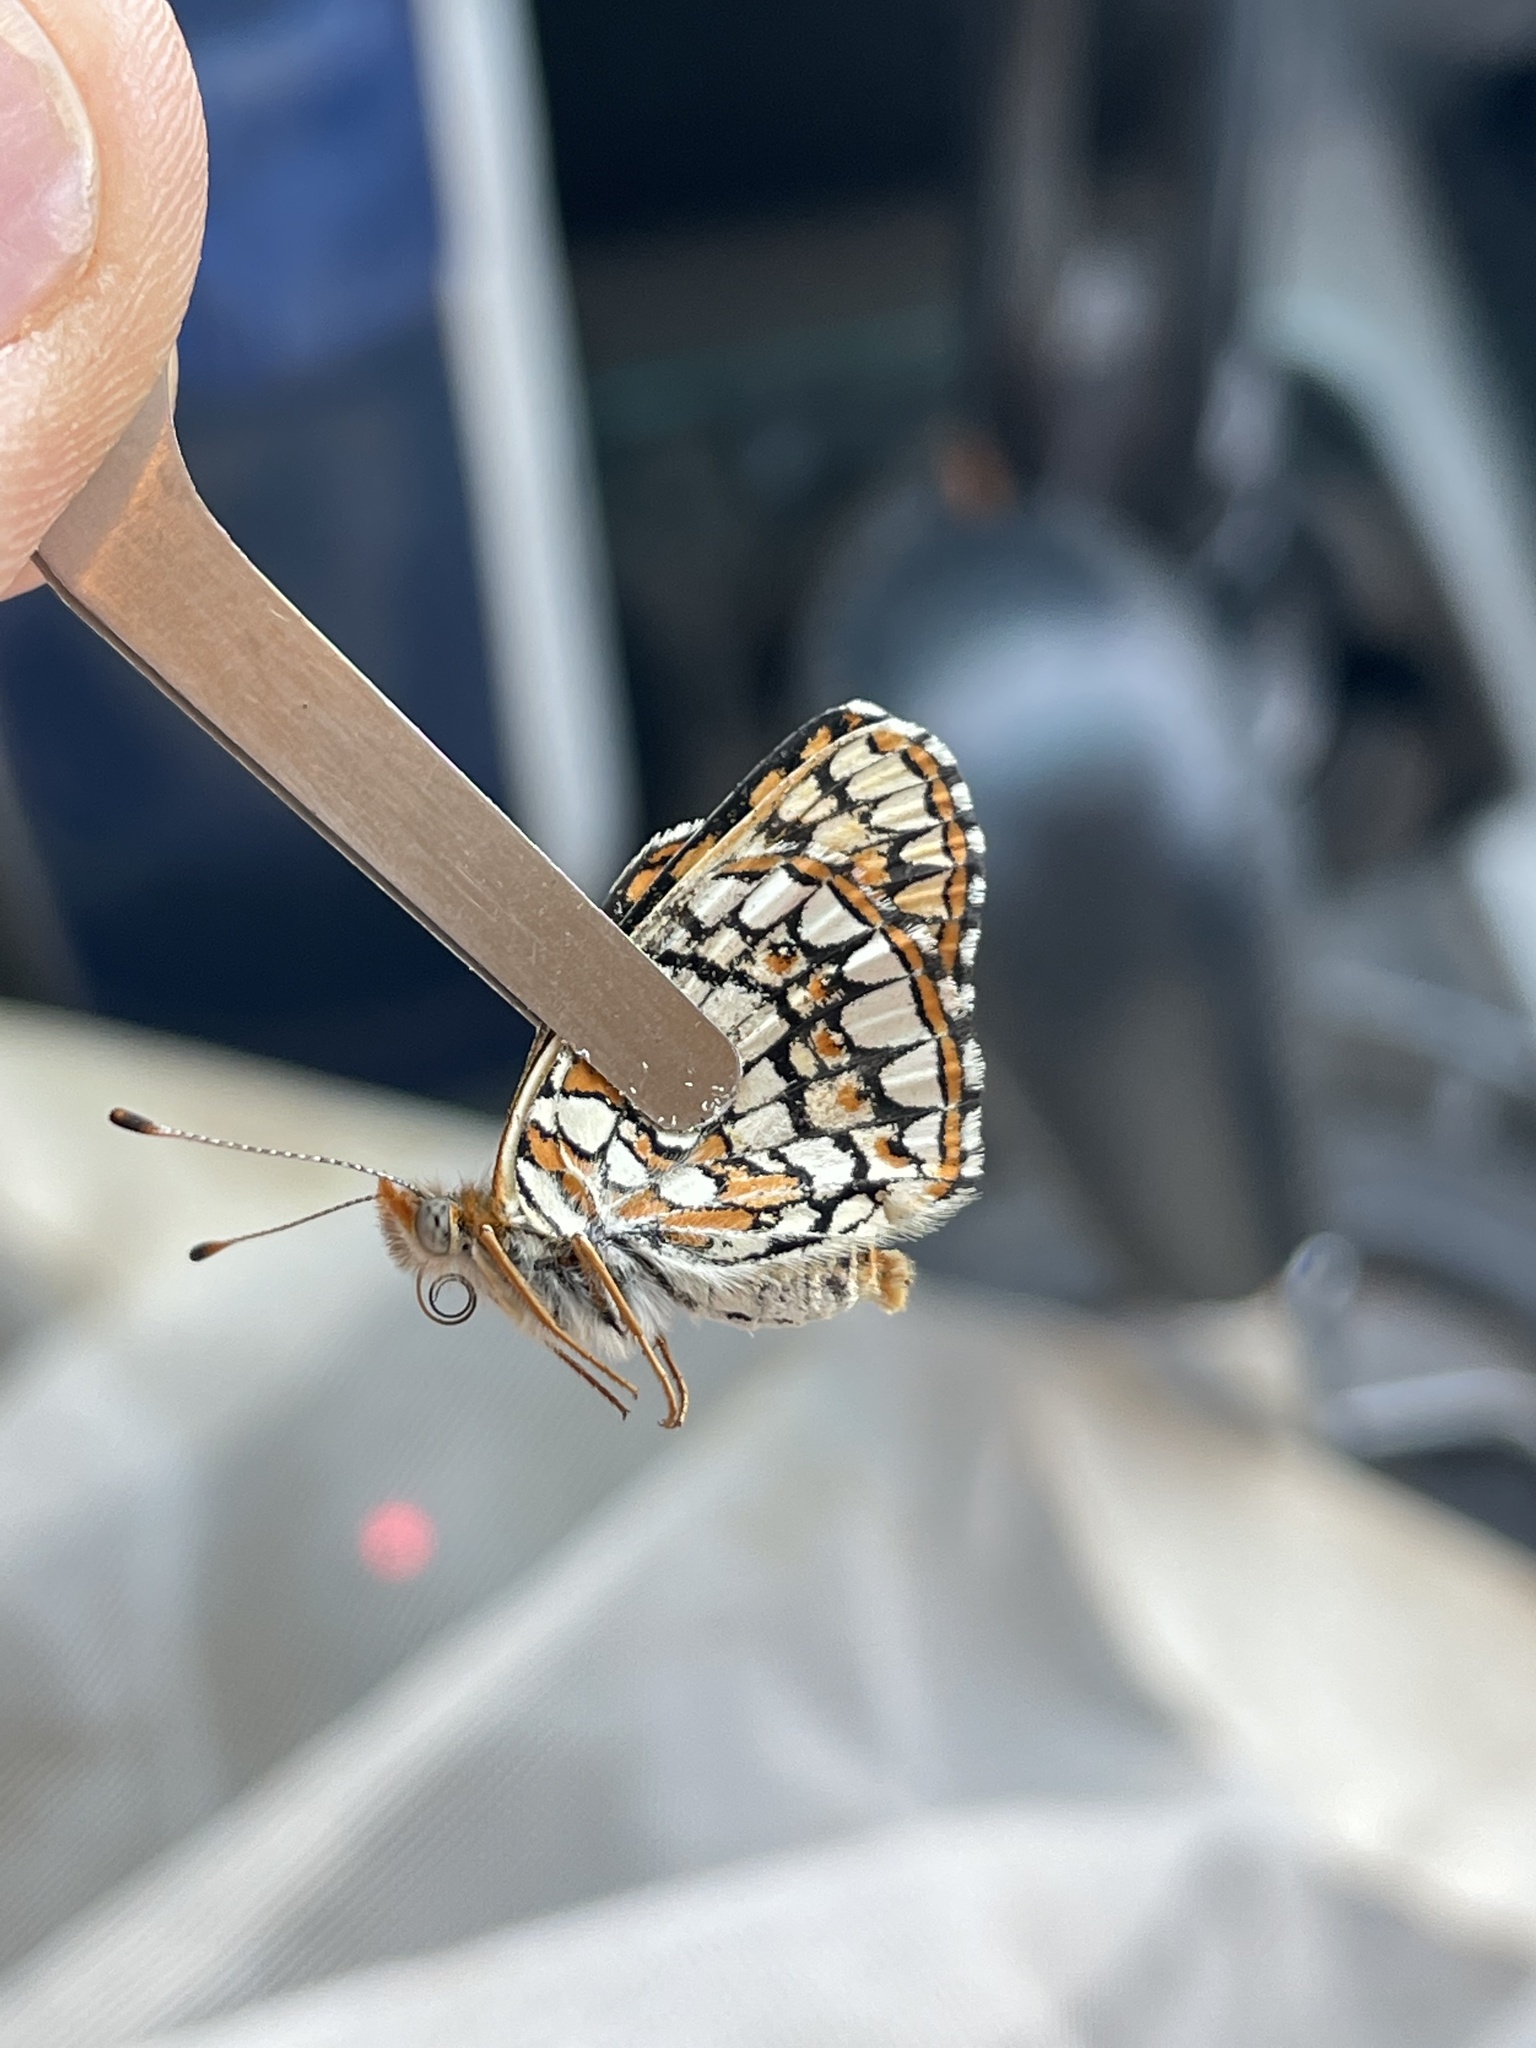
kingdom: Animalia
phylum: Arthropoda
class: Insecta
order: Lepidoptera
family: Nymphalidae
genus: Chlosyne
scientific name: Chlosyne acastus
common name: Sagebrush checkerspot
